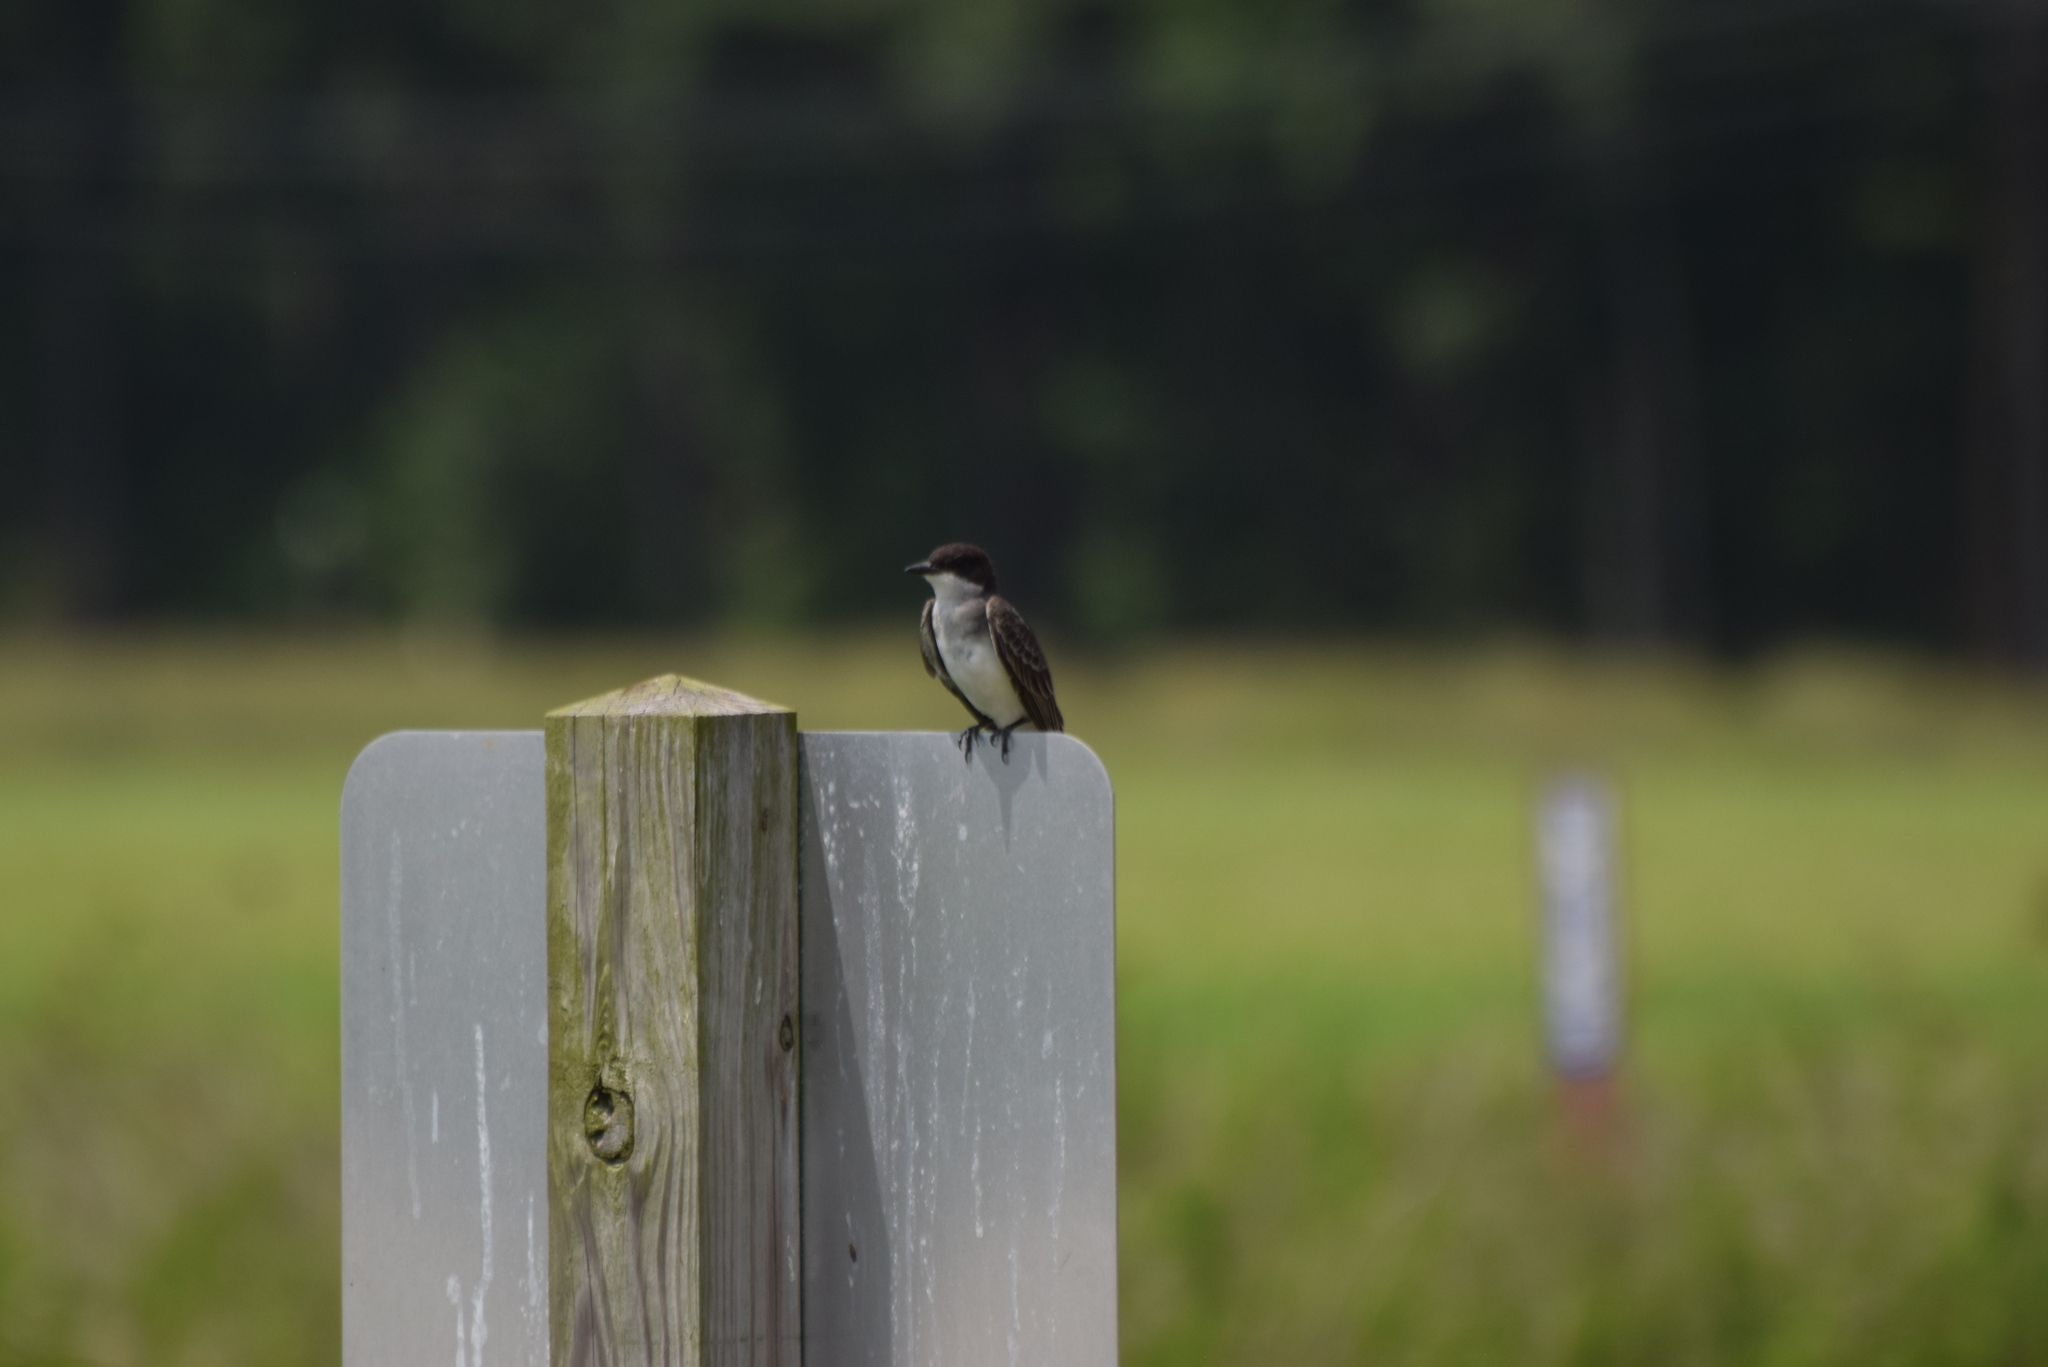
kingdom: Animalia
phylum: Chordata
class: Aves
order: Passeriformes
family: Tyrannidae
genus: Tyrannus
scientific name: Tyrannus tyrannus
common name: Eastern kingbird
